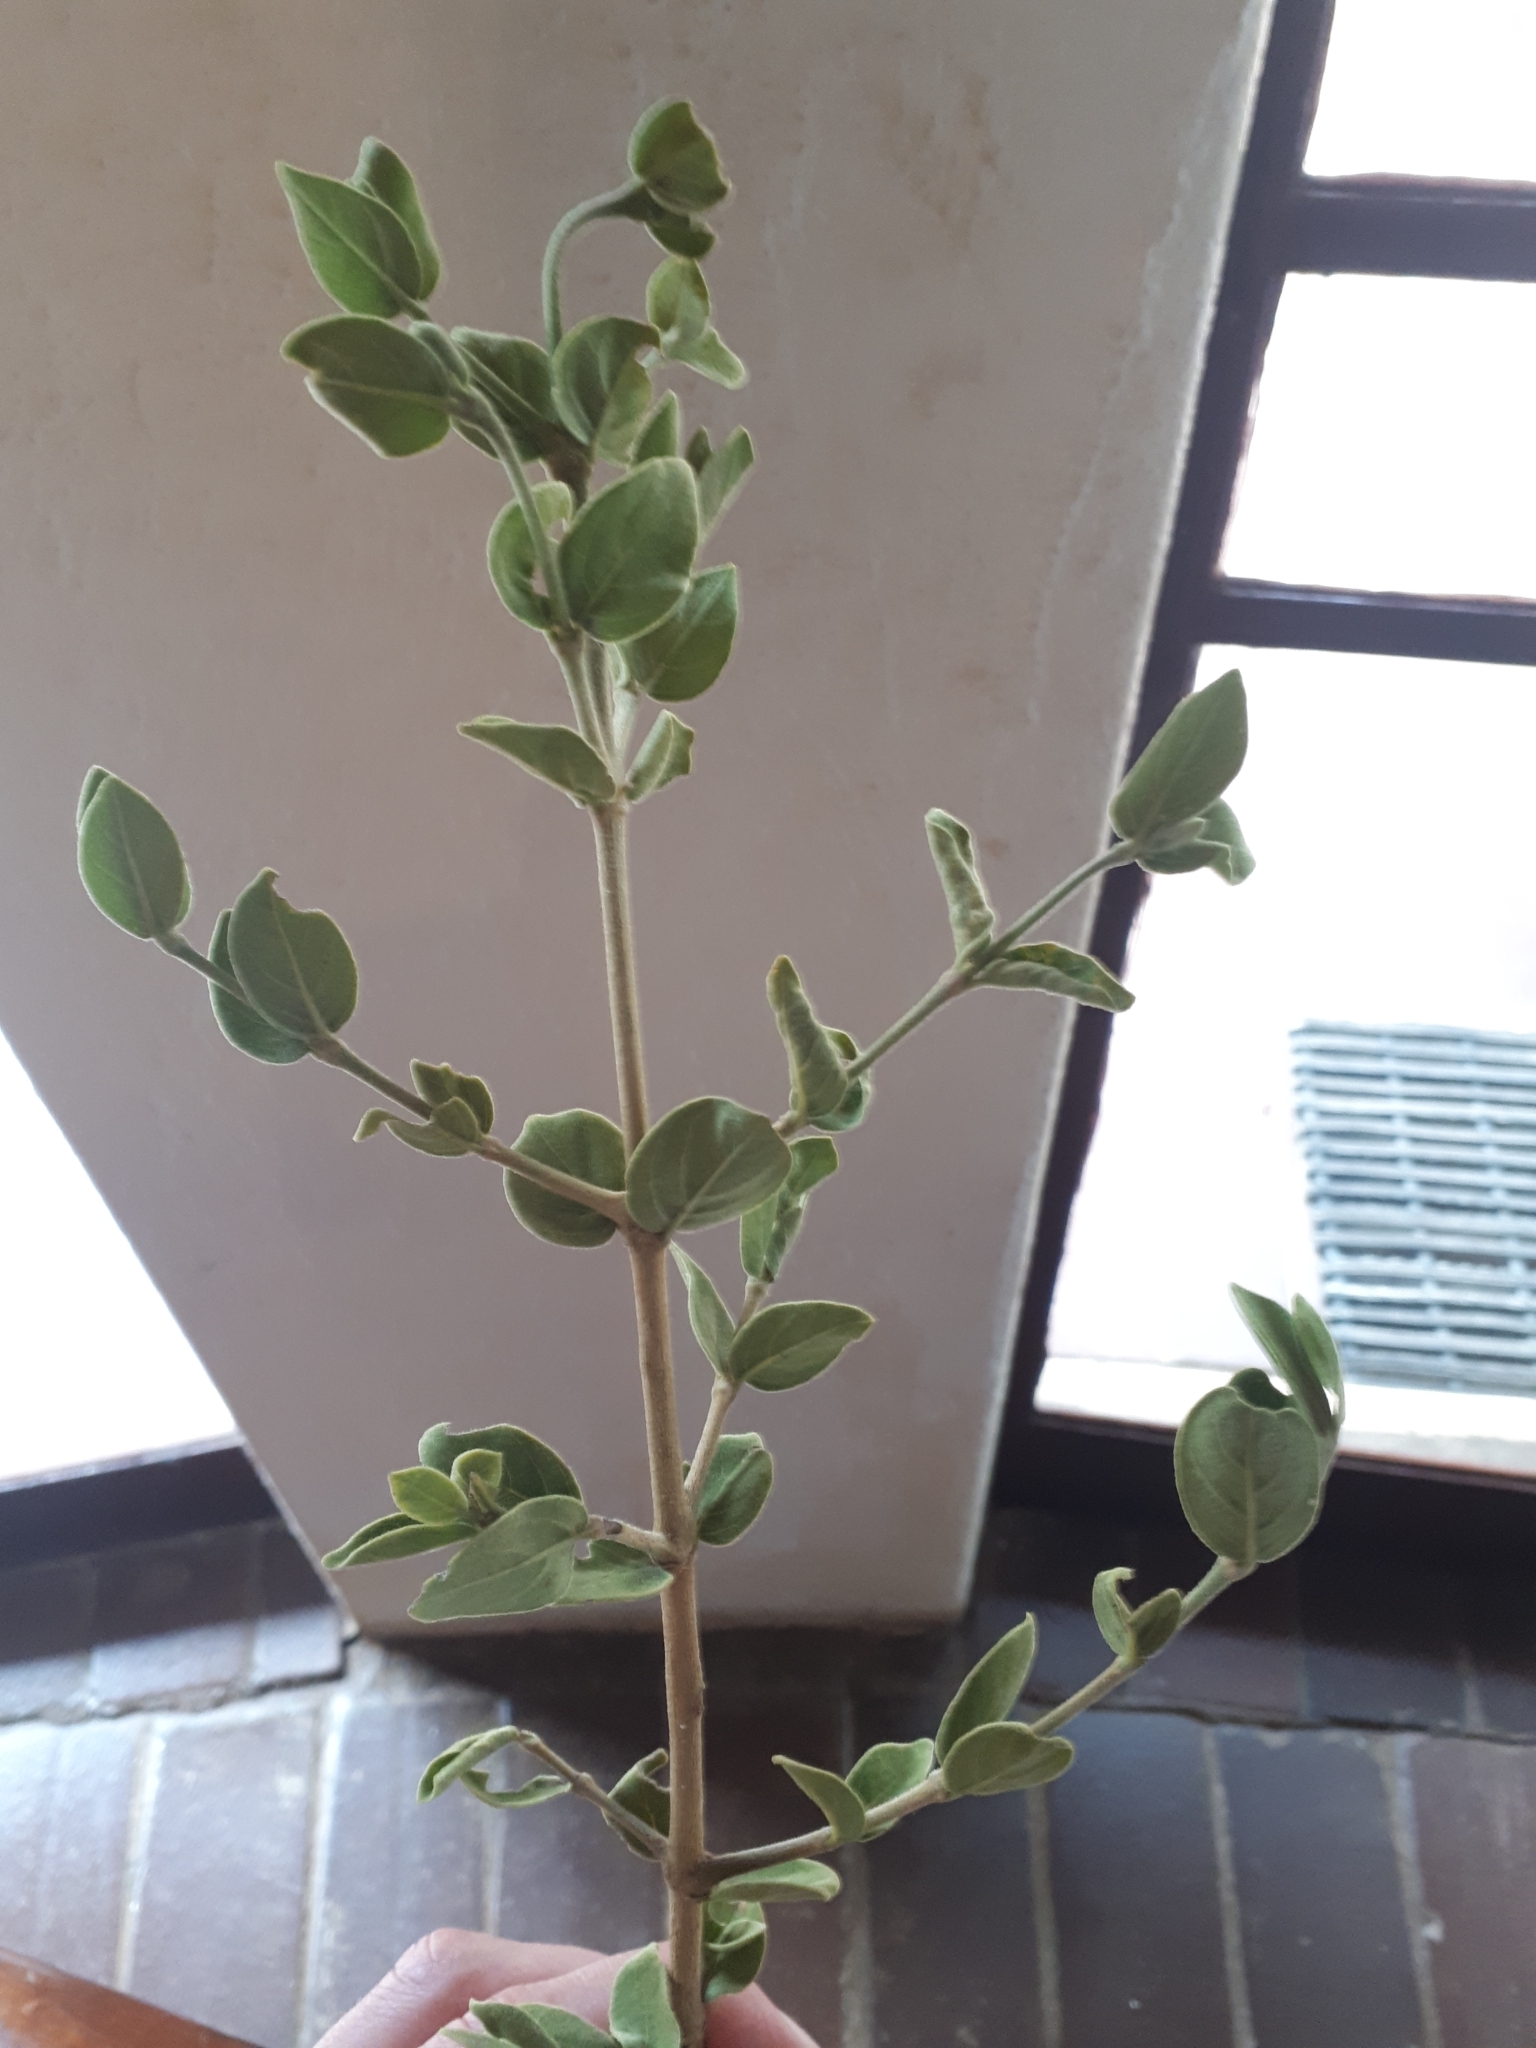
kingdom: Plantae
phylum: Tracheophyta
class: Magnoliopsida
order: Gentianales
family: Rubiaceae
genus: Vangueria
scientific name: Vangueria parvifolia
